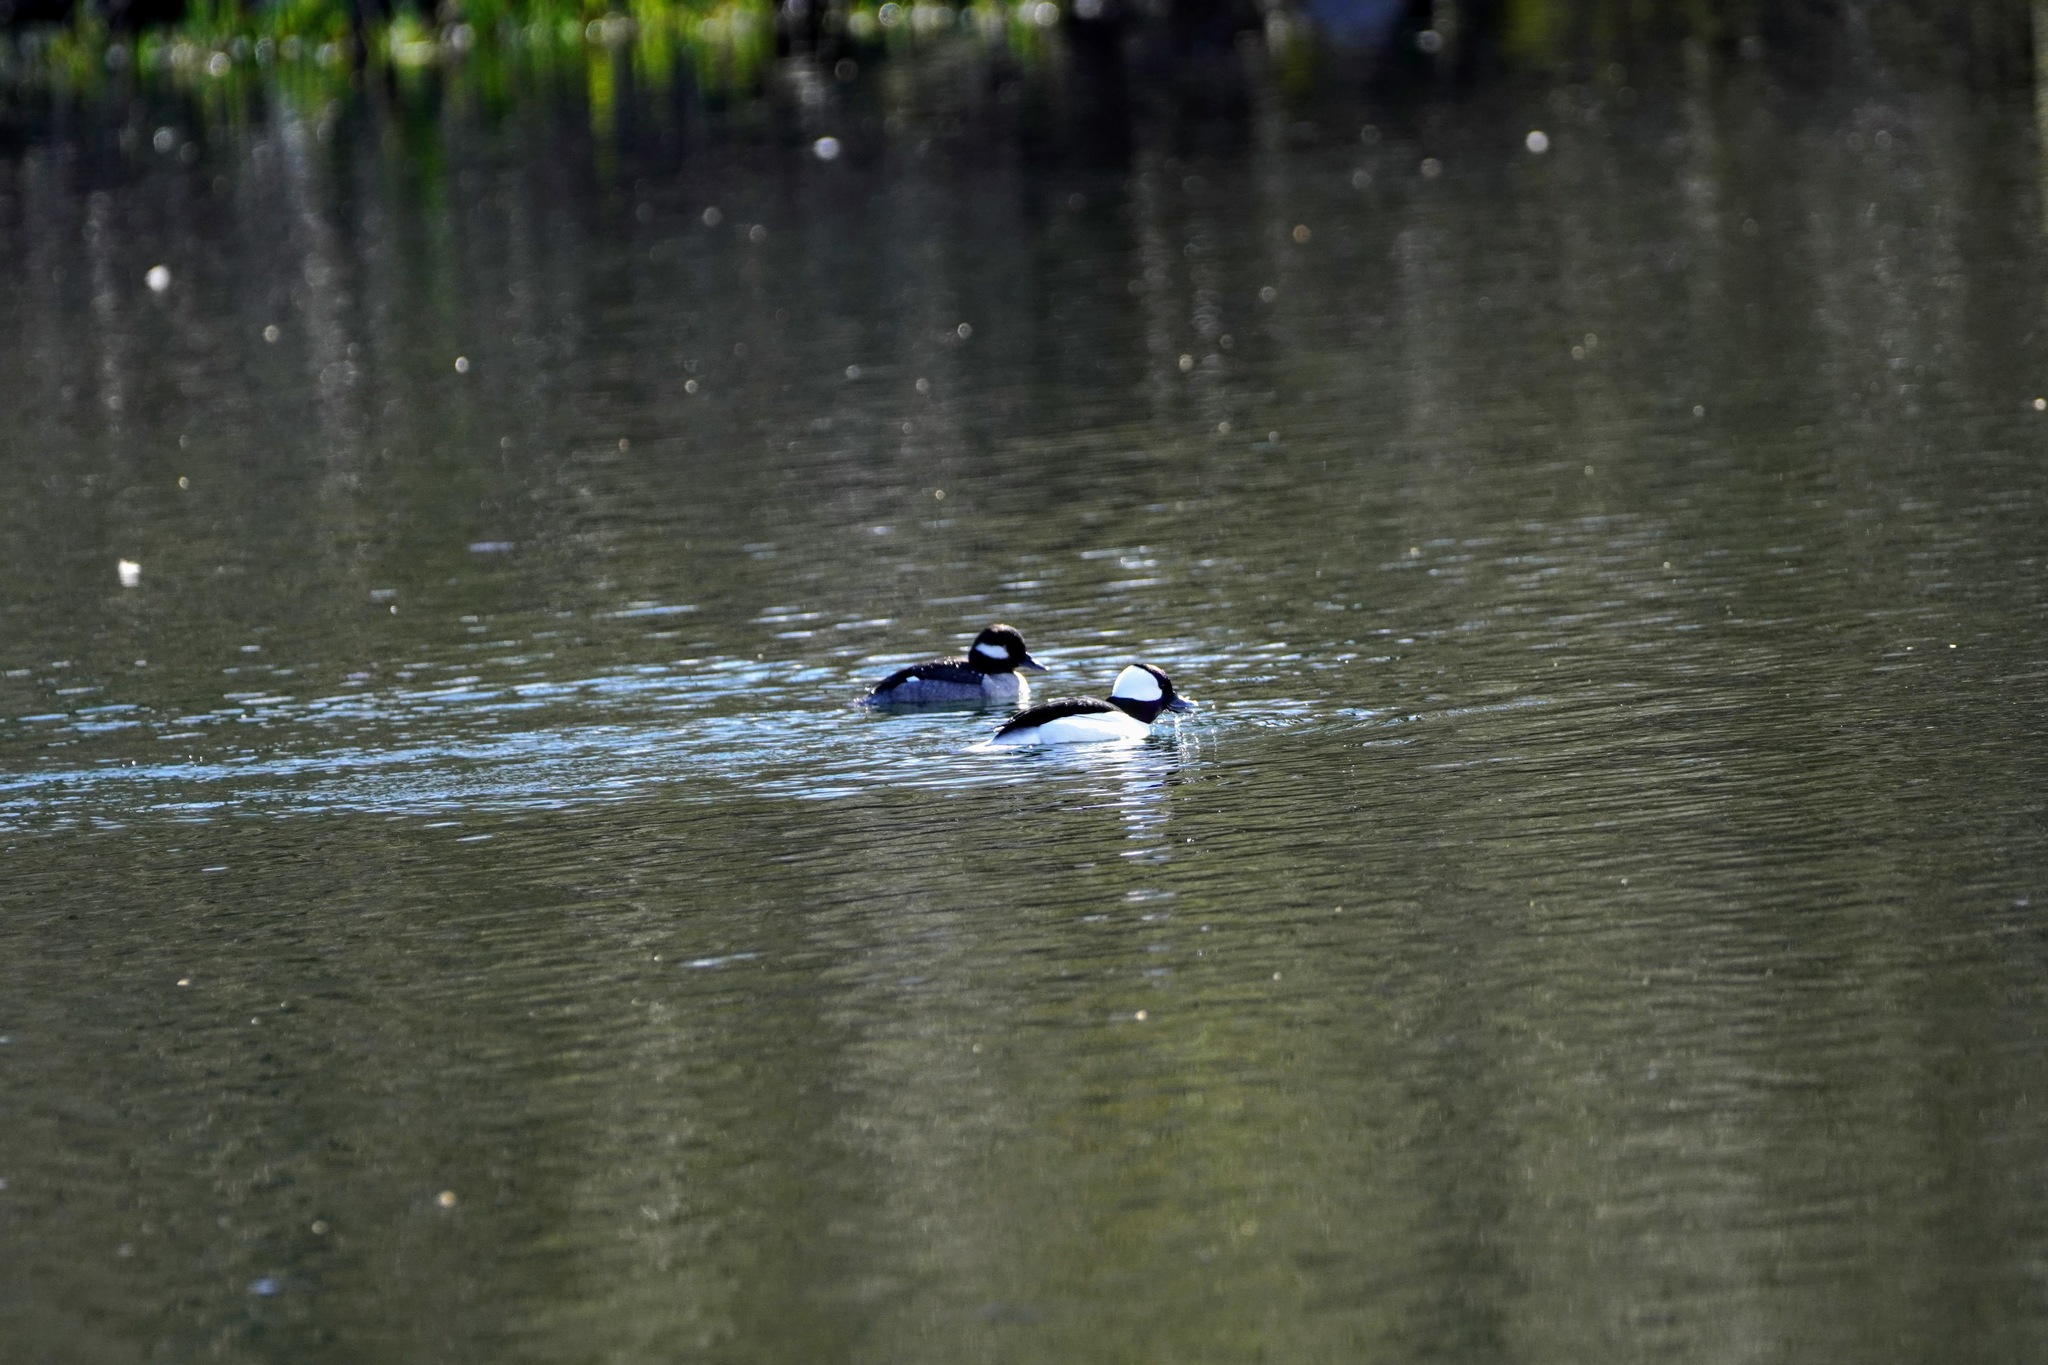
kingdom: Animalia
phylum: Chordata
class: Aves
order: Anseriformes
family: Anatidae
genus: Bucephala
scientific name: Bucephala albeola
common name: Bufflehead
